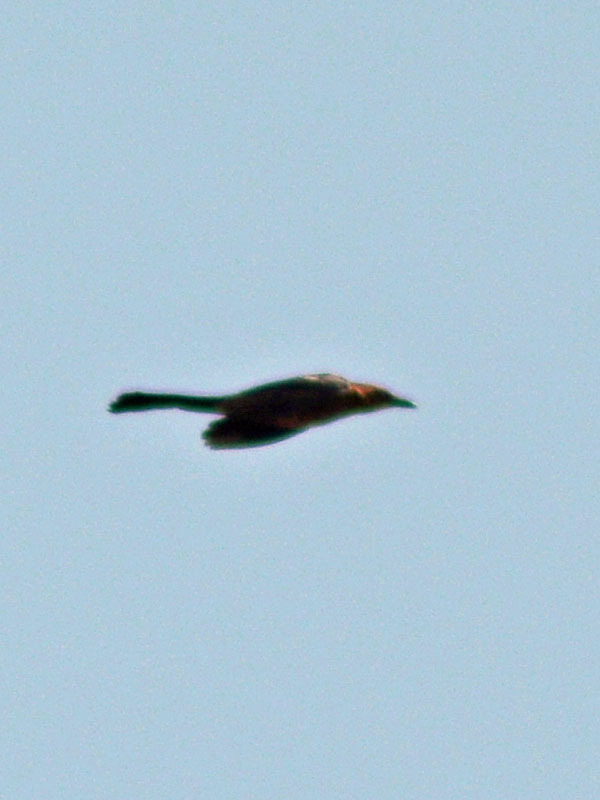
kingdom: Animalia
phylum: Chordata
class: Aves
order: Passeriformes
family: Icteridae
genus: Quiscalus
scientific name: Quiscalus mexicanus
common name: Great-tailed grackle
